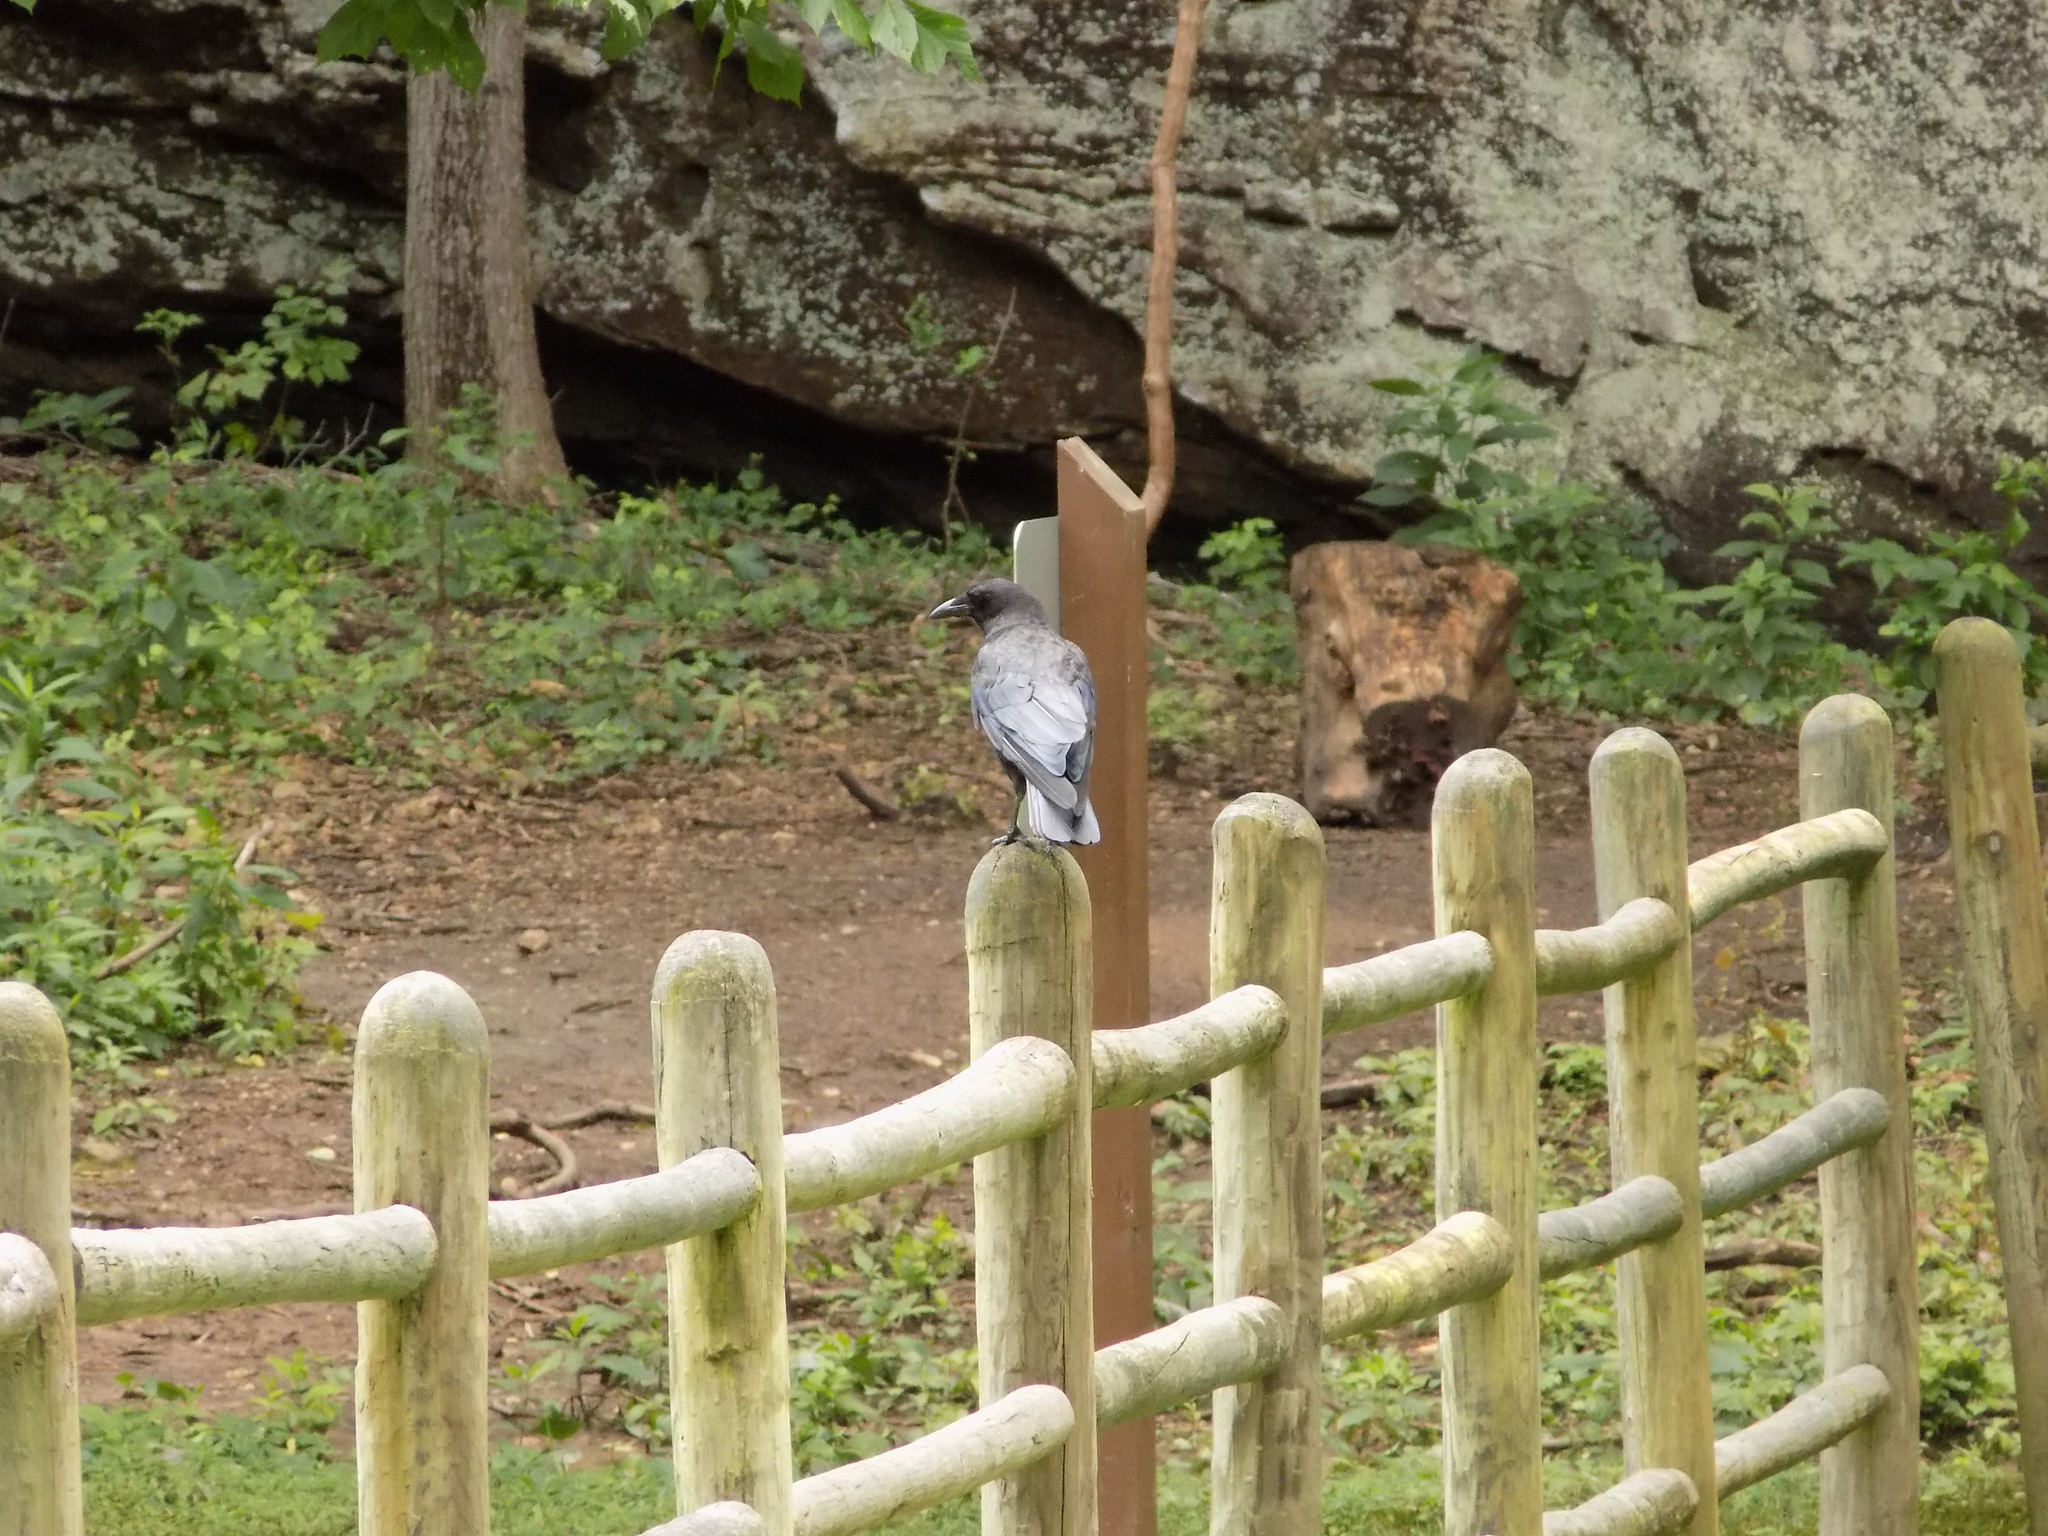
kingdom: Animalia
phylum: Chordata
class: Aves
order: Passeriformes
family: Corvidae
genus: Corvus
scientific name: Corvus brachyrhynchos
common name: American crow
